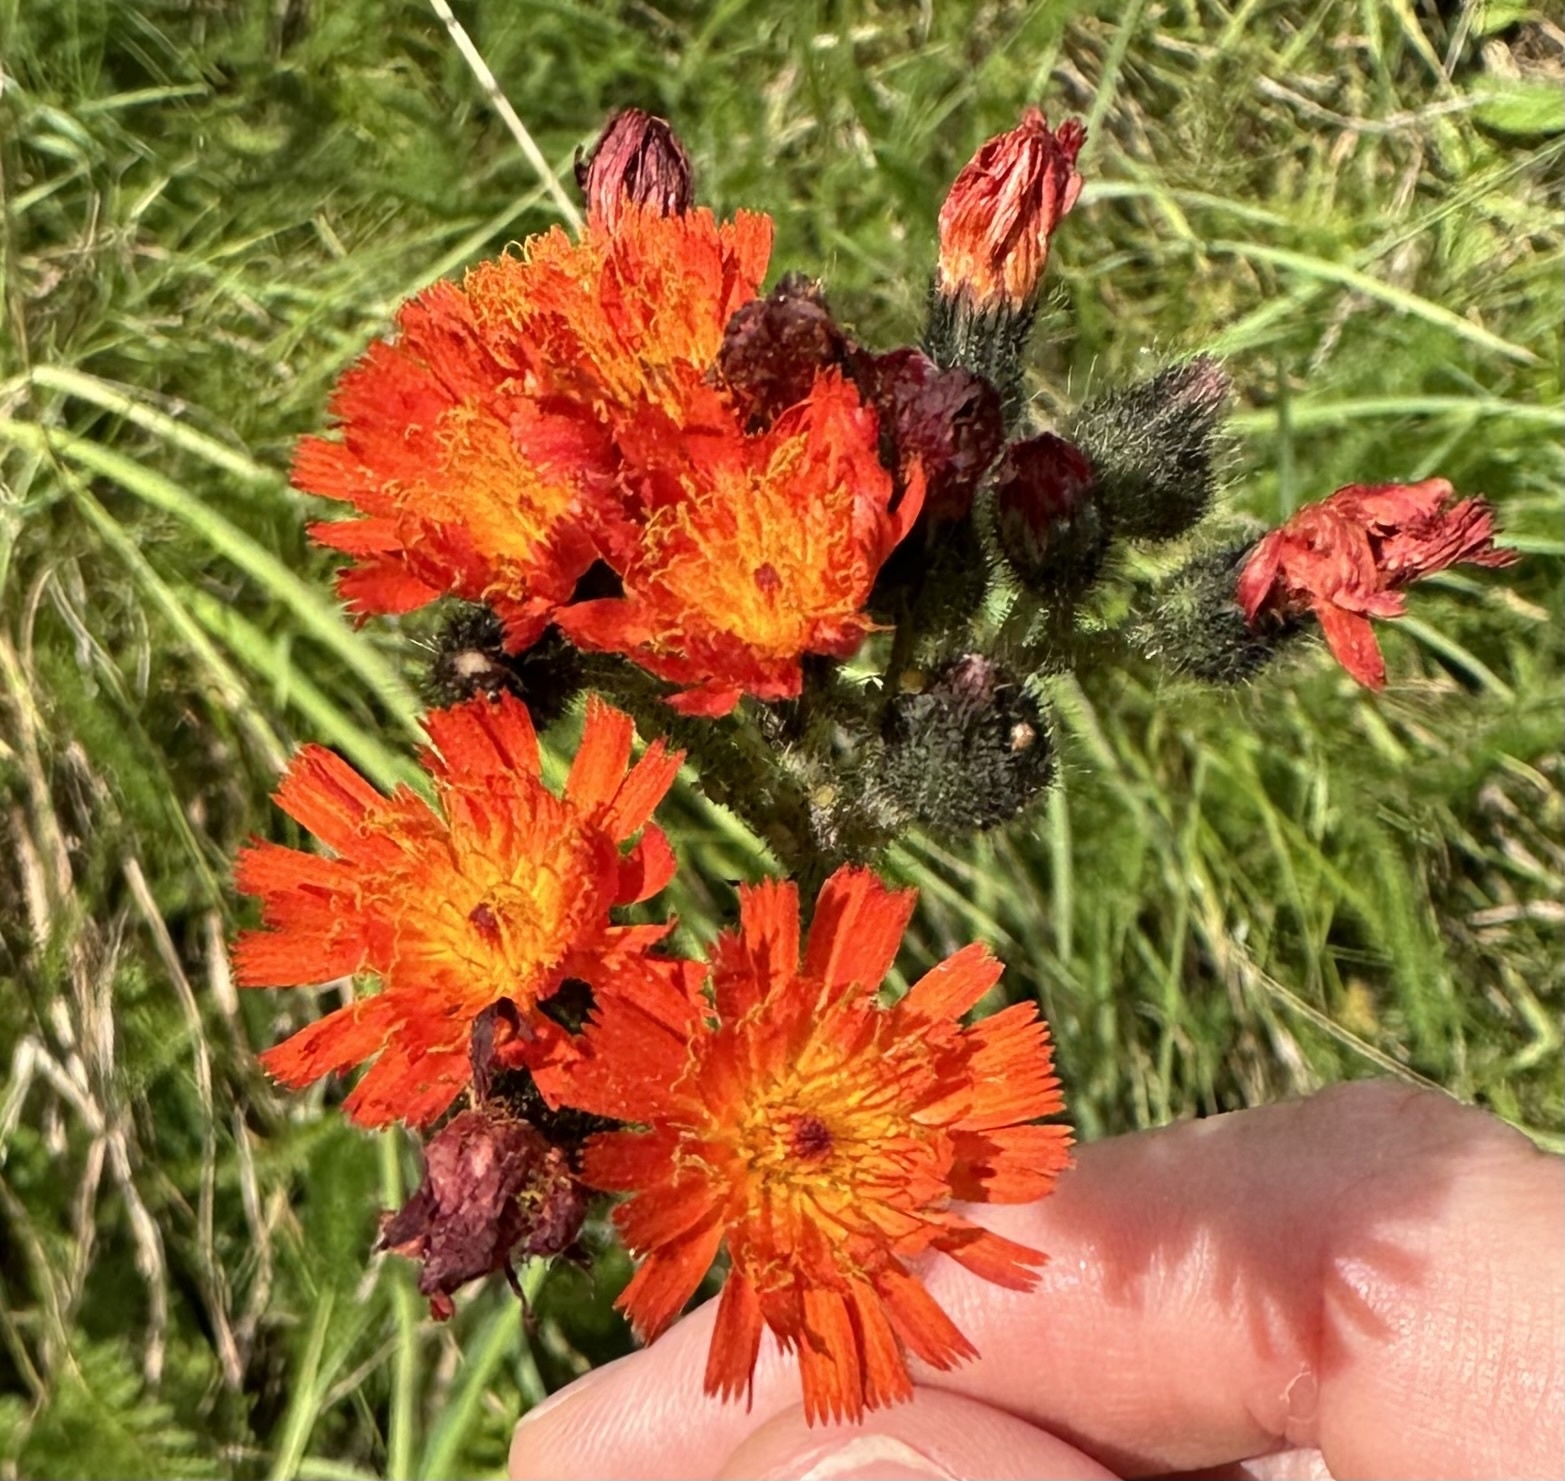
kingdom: Plantae
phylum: Tracheophyta
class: Magnoliopsida
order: Asterales
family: Asteraceae
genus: Pilosella
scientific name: Pilosella aurantiaca
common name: Fox-and-cubs
